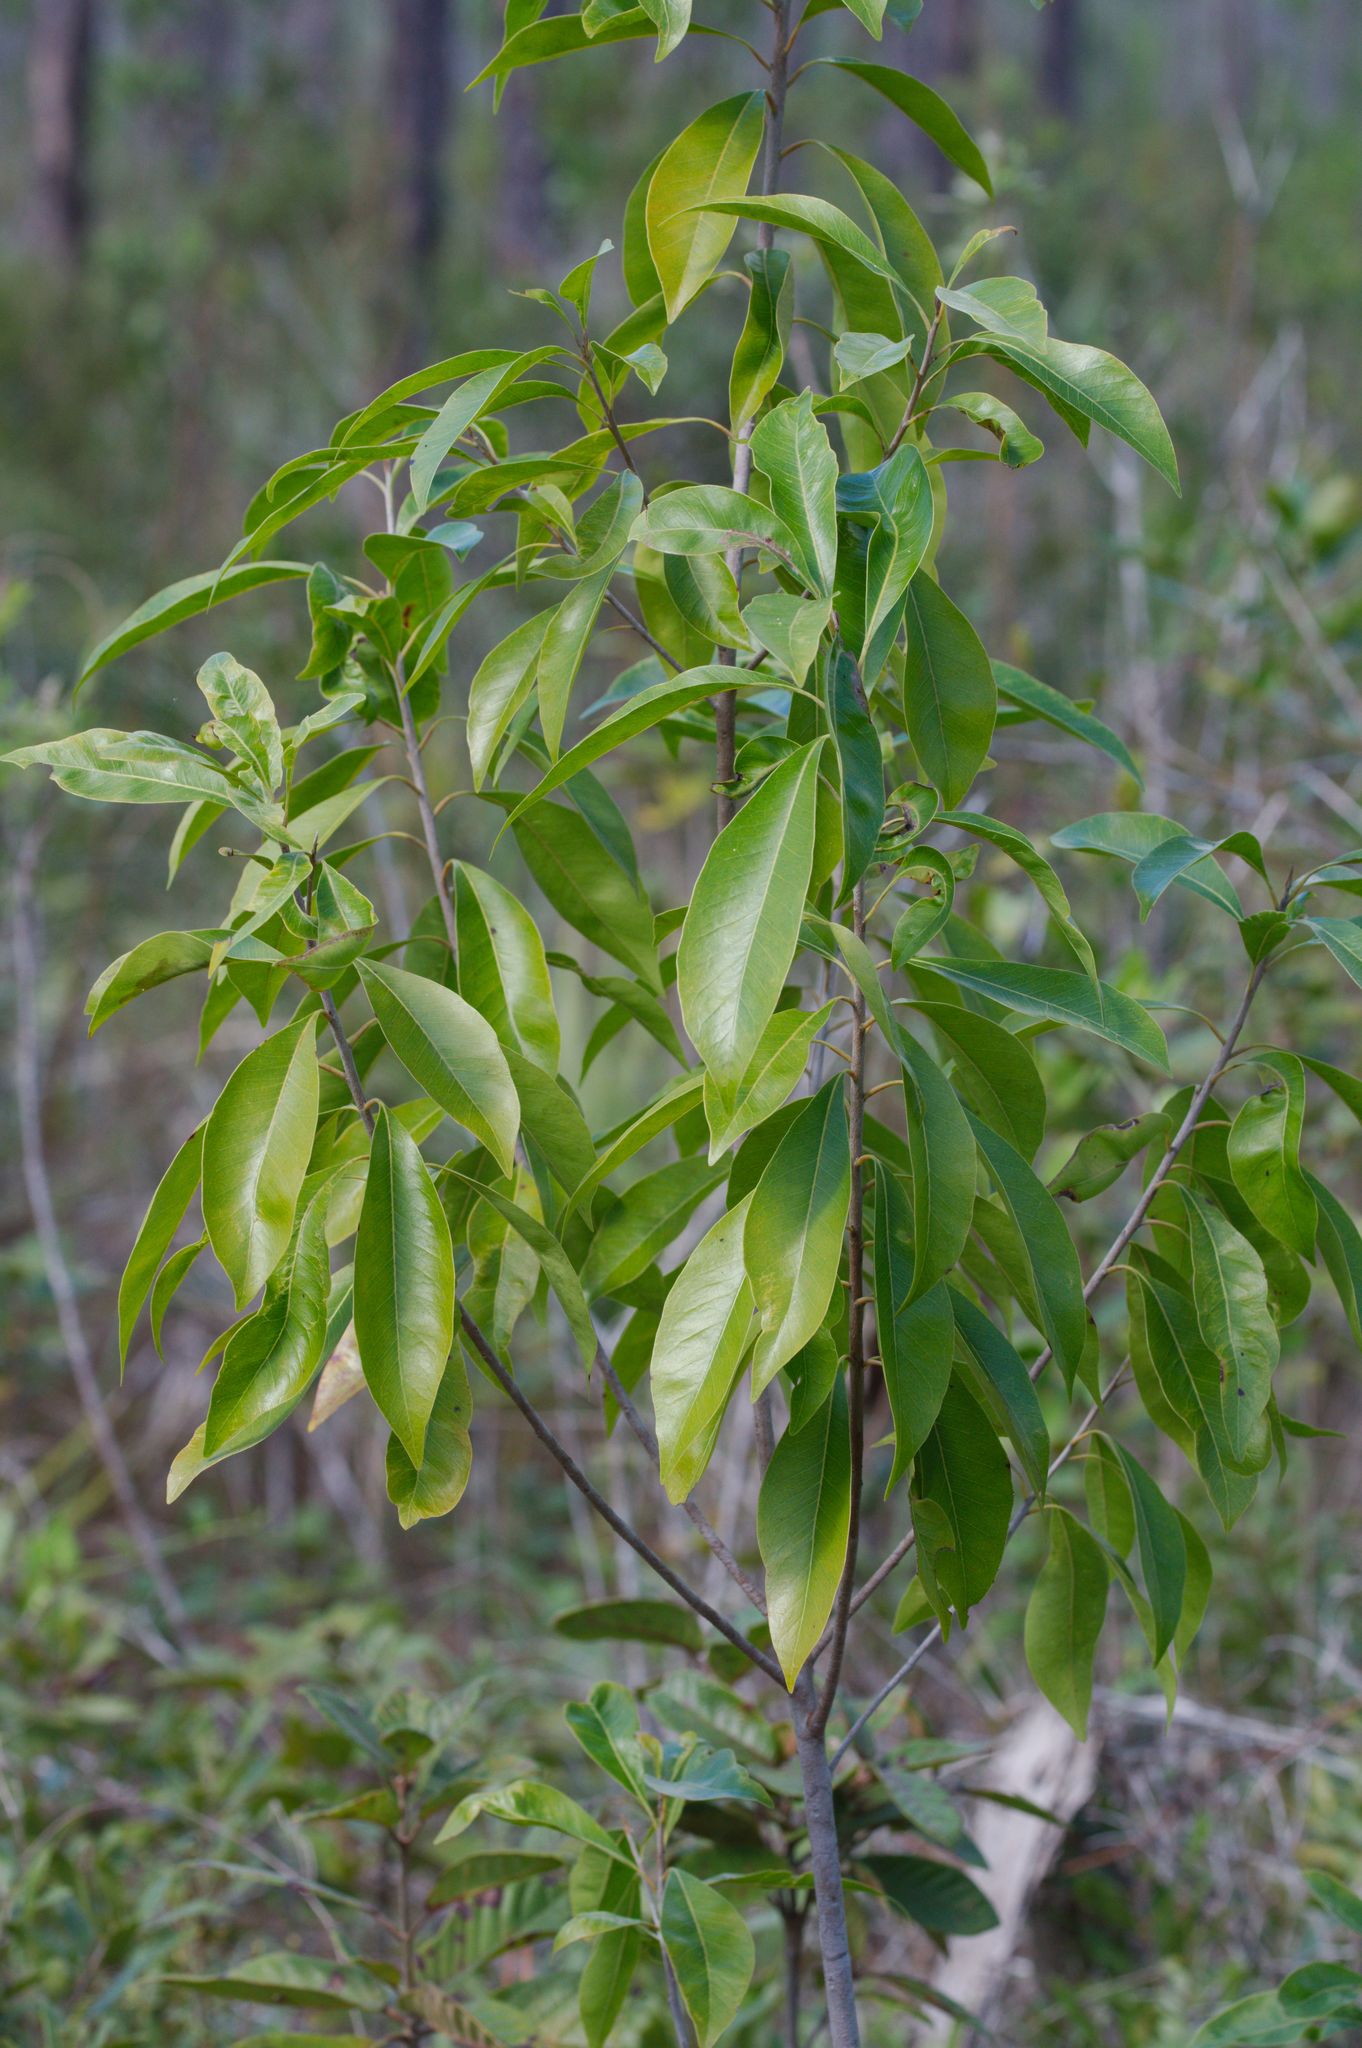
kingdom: Plantae
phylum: Tracheophyta
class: Magnoliopsida
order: Ericales
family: Sapotaceae
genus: Sideroxylon
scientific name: Sideroxylon salicifolium
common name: White bully
